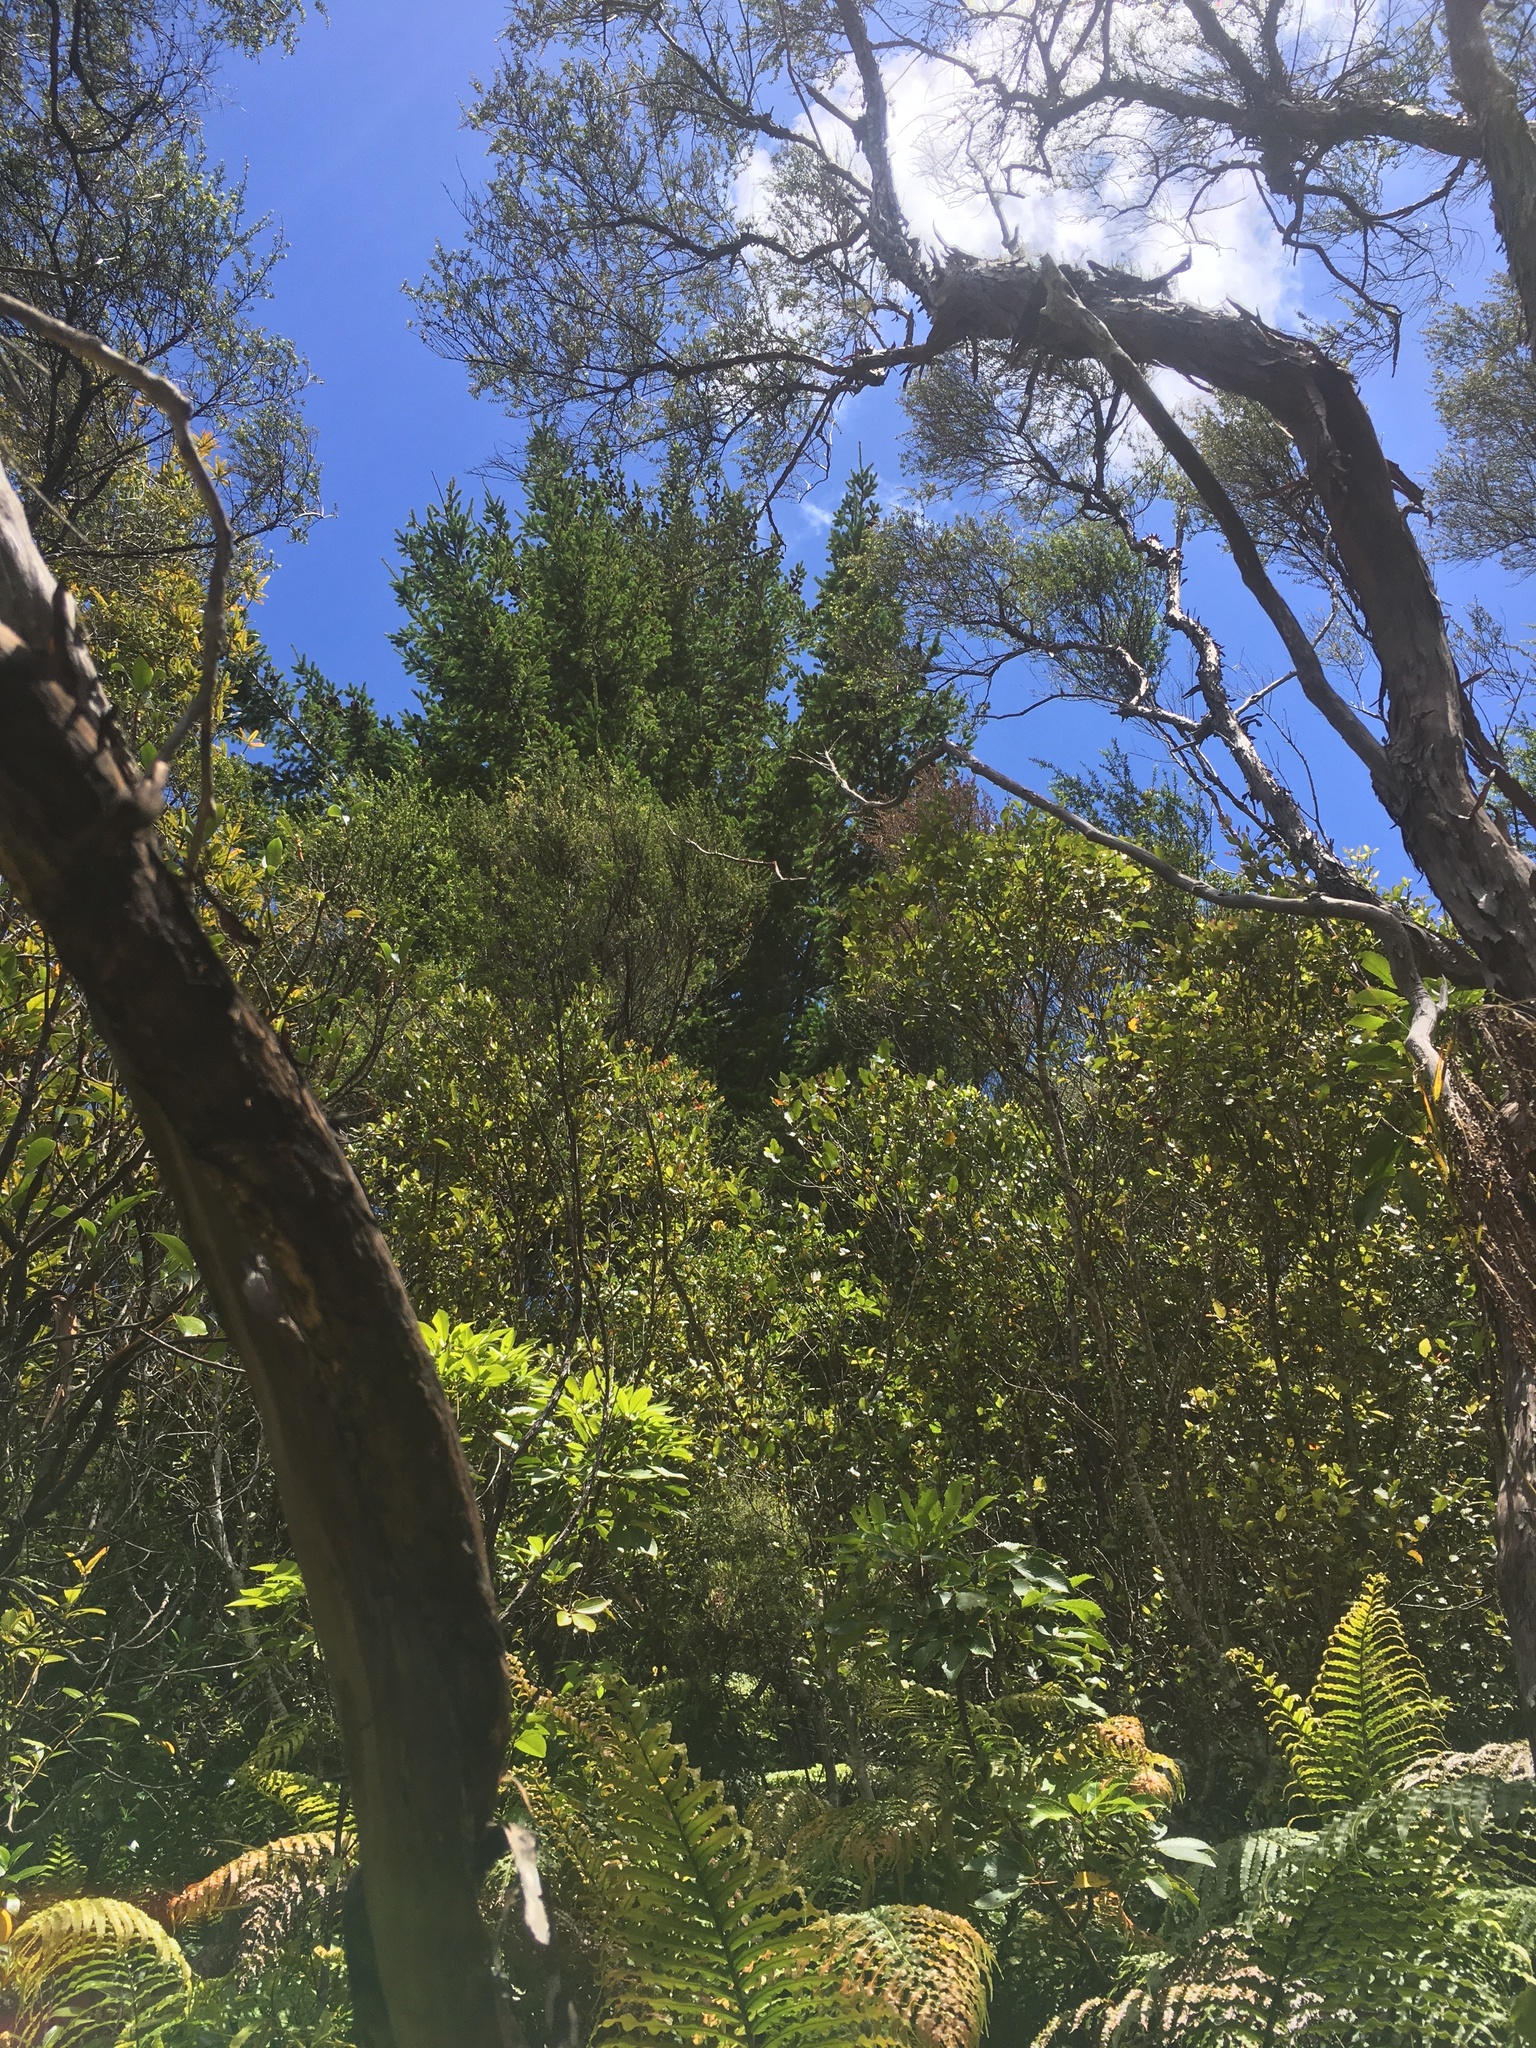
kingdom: Plantae
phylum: Tracheophyta
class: Pinopsida
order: Pinales
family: Pinaceae
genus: Pinus
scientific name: Pinus radiata
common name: Monterey pine
